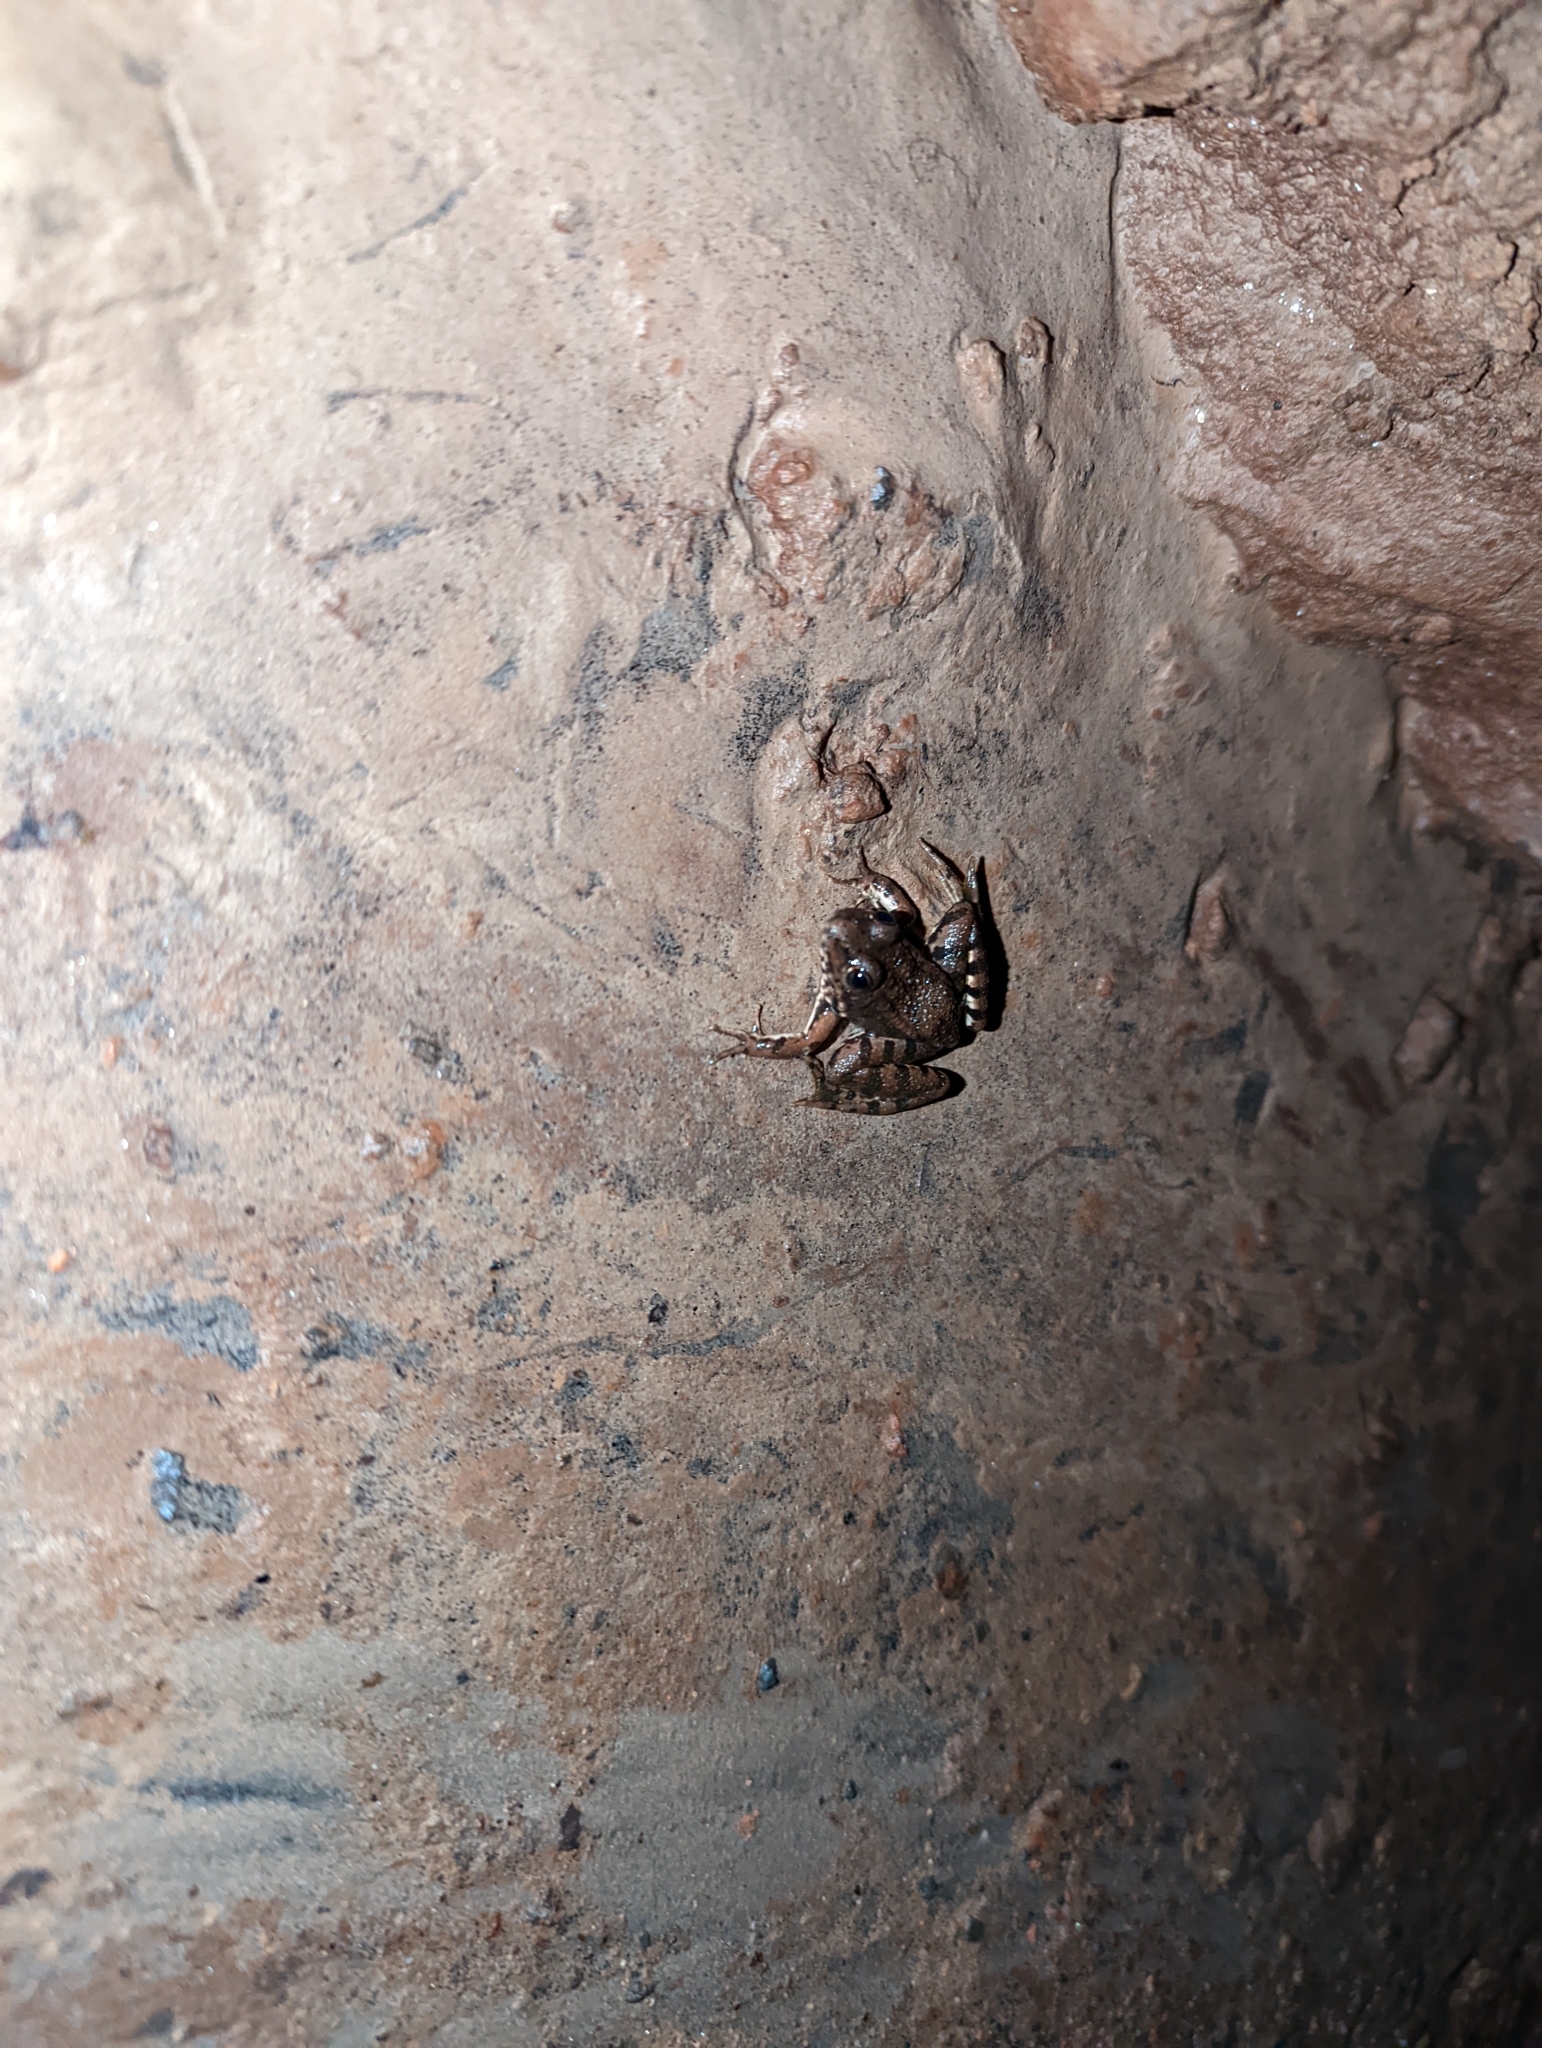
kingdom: Animalia
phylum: Chordata
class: Amphibia
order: Anura
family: Ranidae
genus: Pelophylax
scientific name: Pelophylax perezi
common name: Perez's frog
